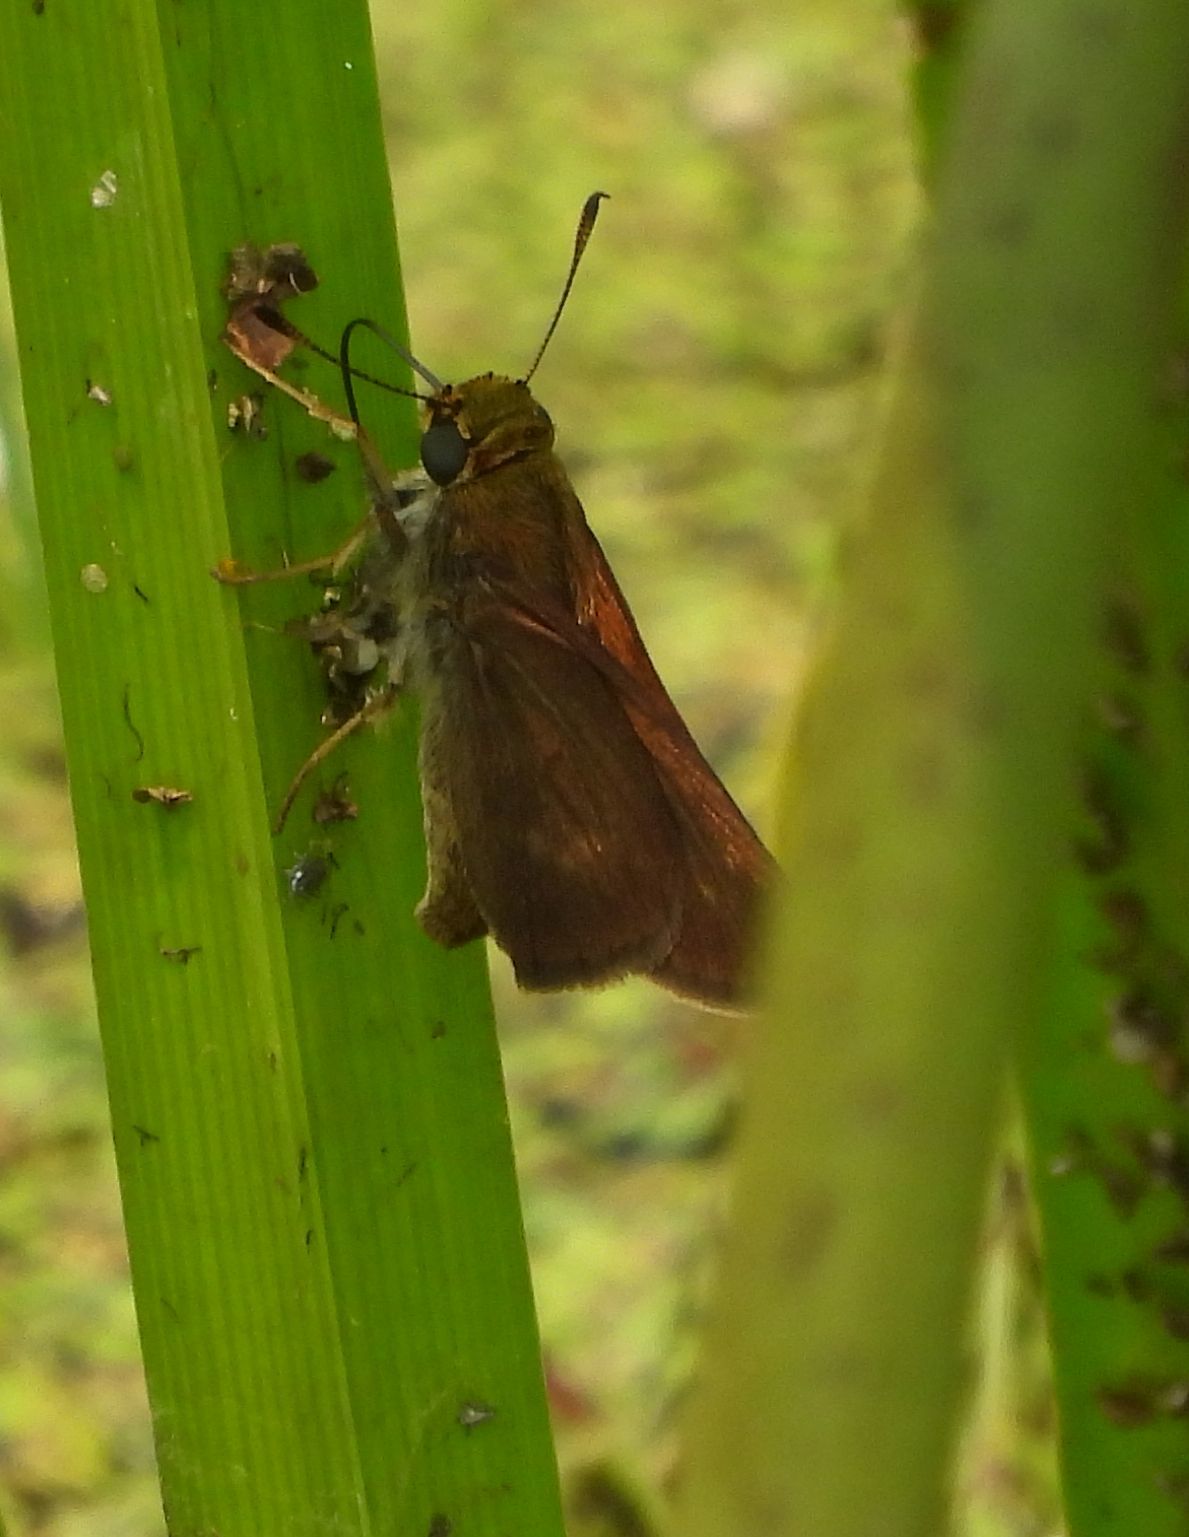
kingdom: Animalia
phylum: Arthropoda
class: Insecta
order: Lepidoptera
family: Hesperiidae
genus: Euphyes
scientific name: Euphyes vestris
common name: Dun skipper
